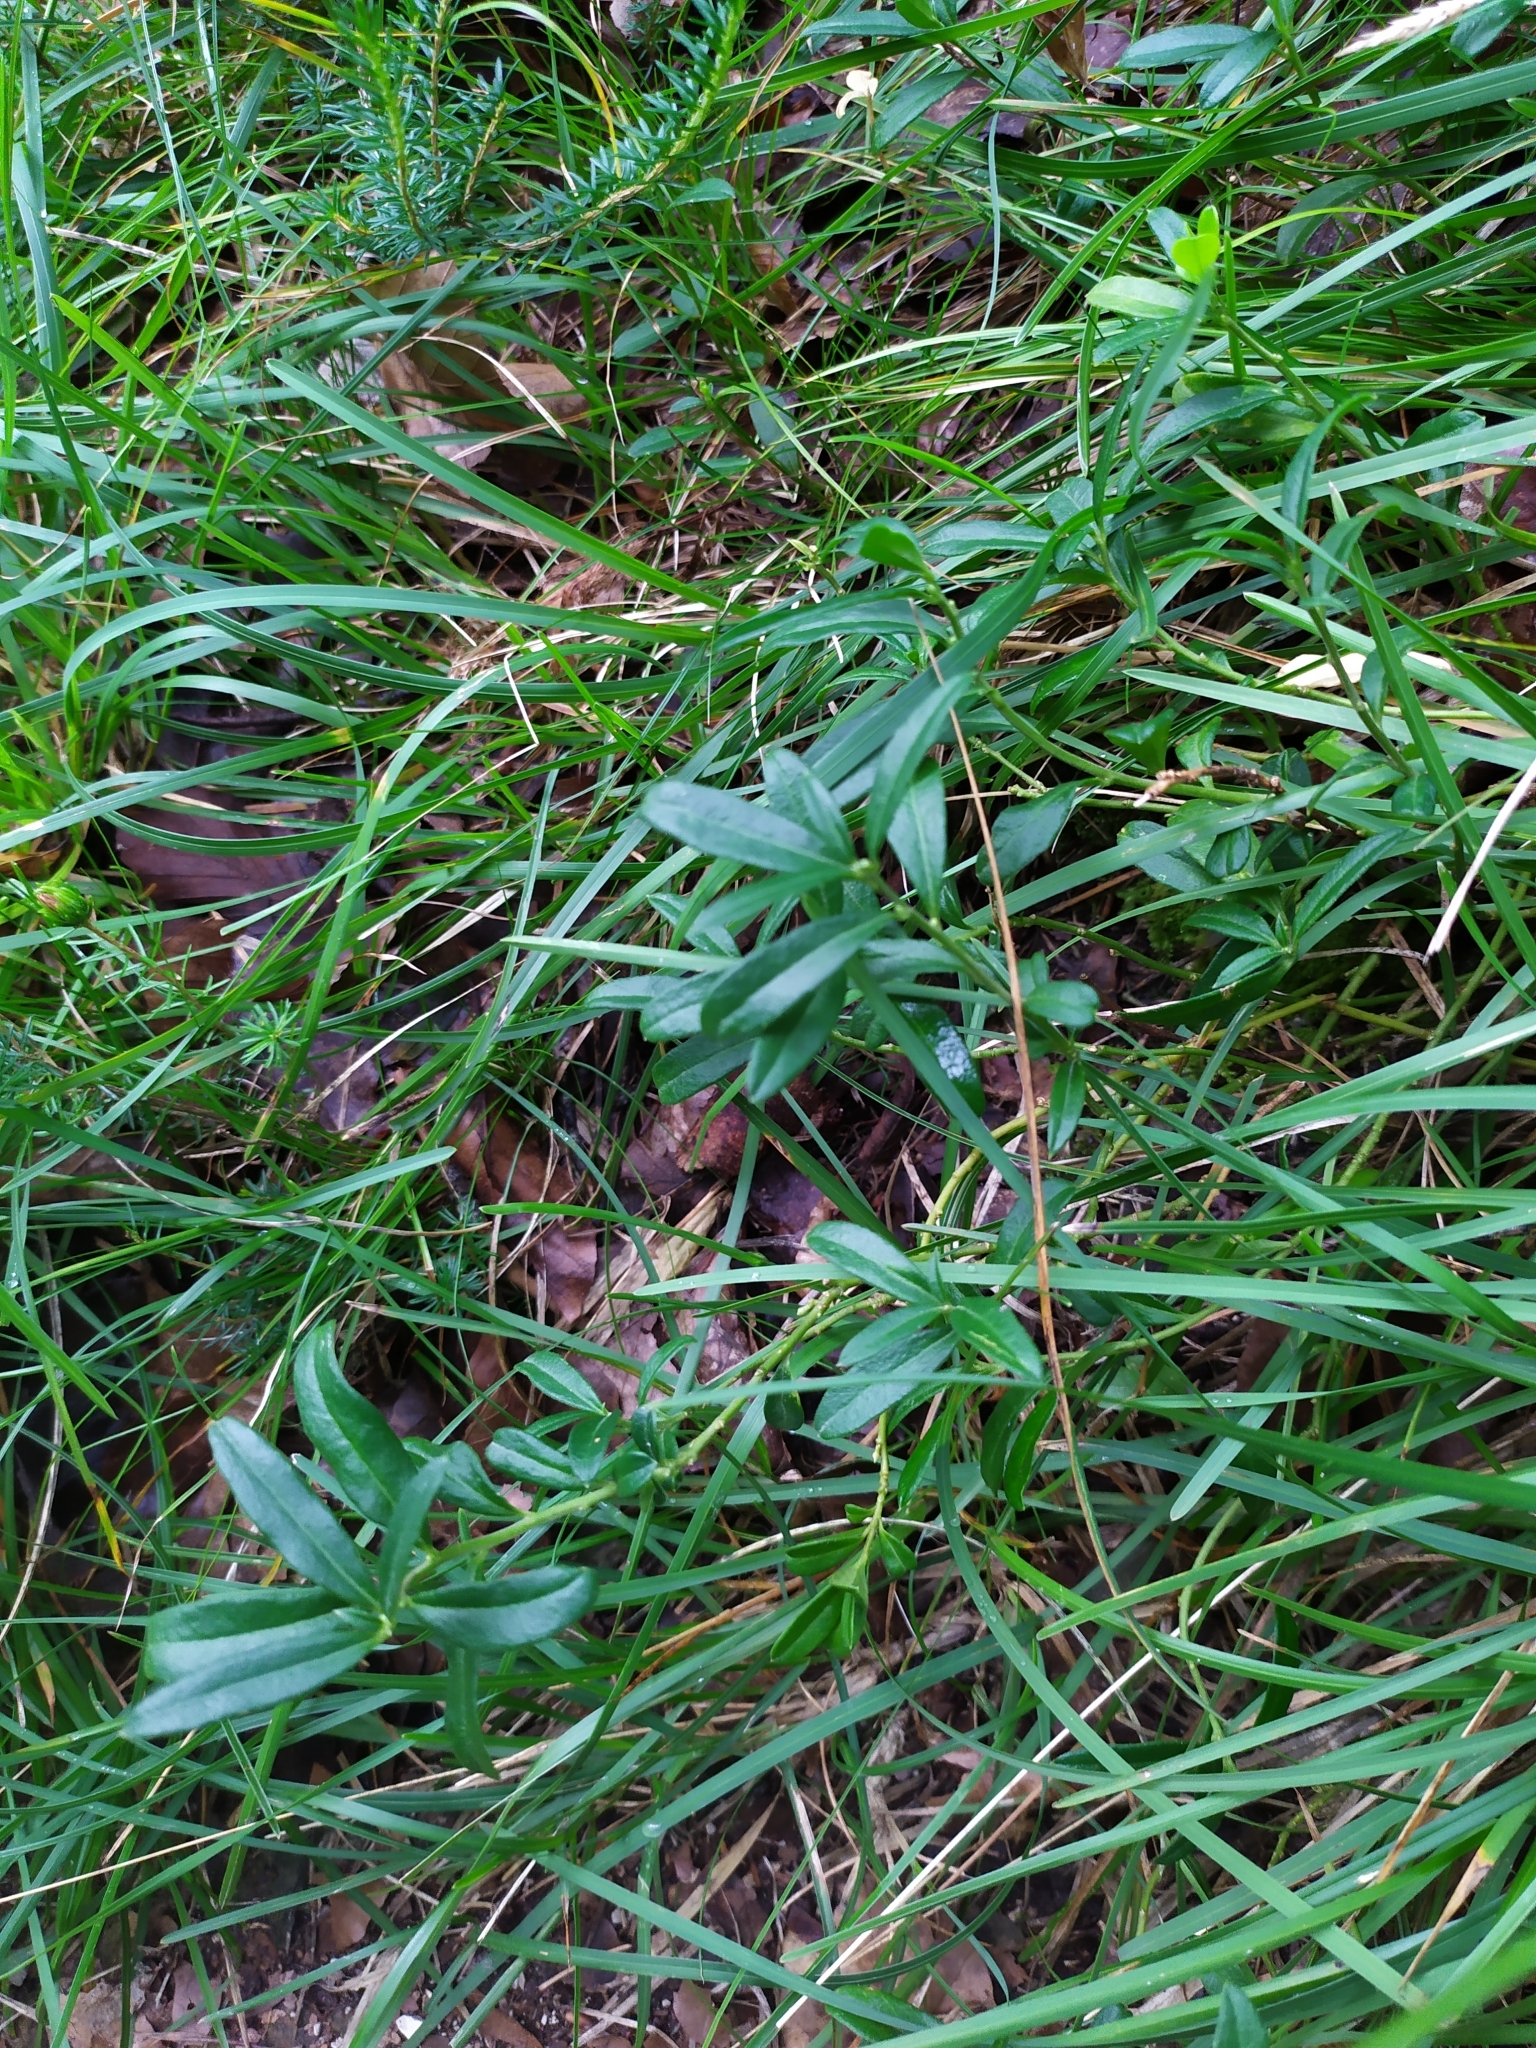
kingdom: Plantae
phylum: Tracheophyta
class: Magnoliopsida
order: Fabales
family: Polygalaceae
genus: Polygaloides
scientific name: Polygaloides chamaebuxus
